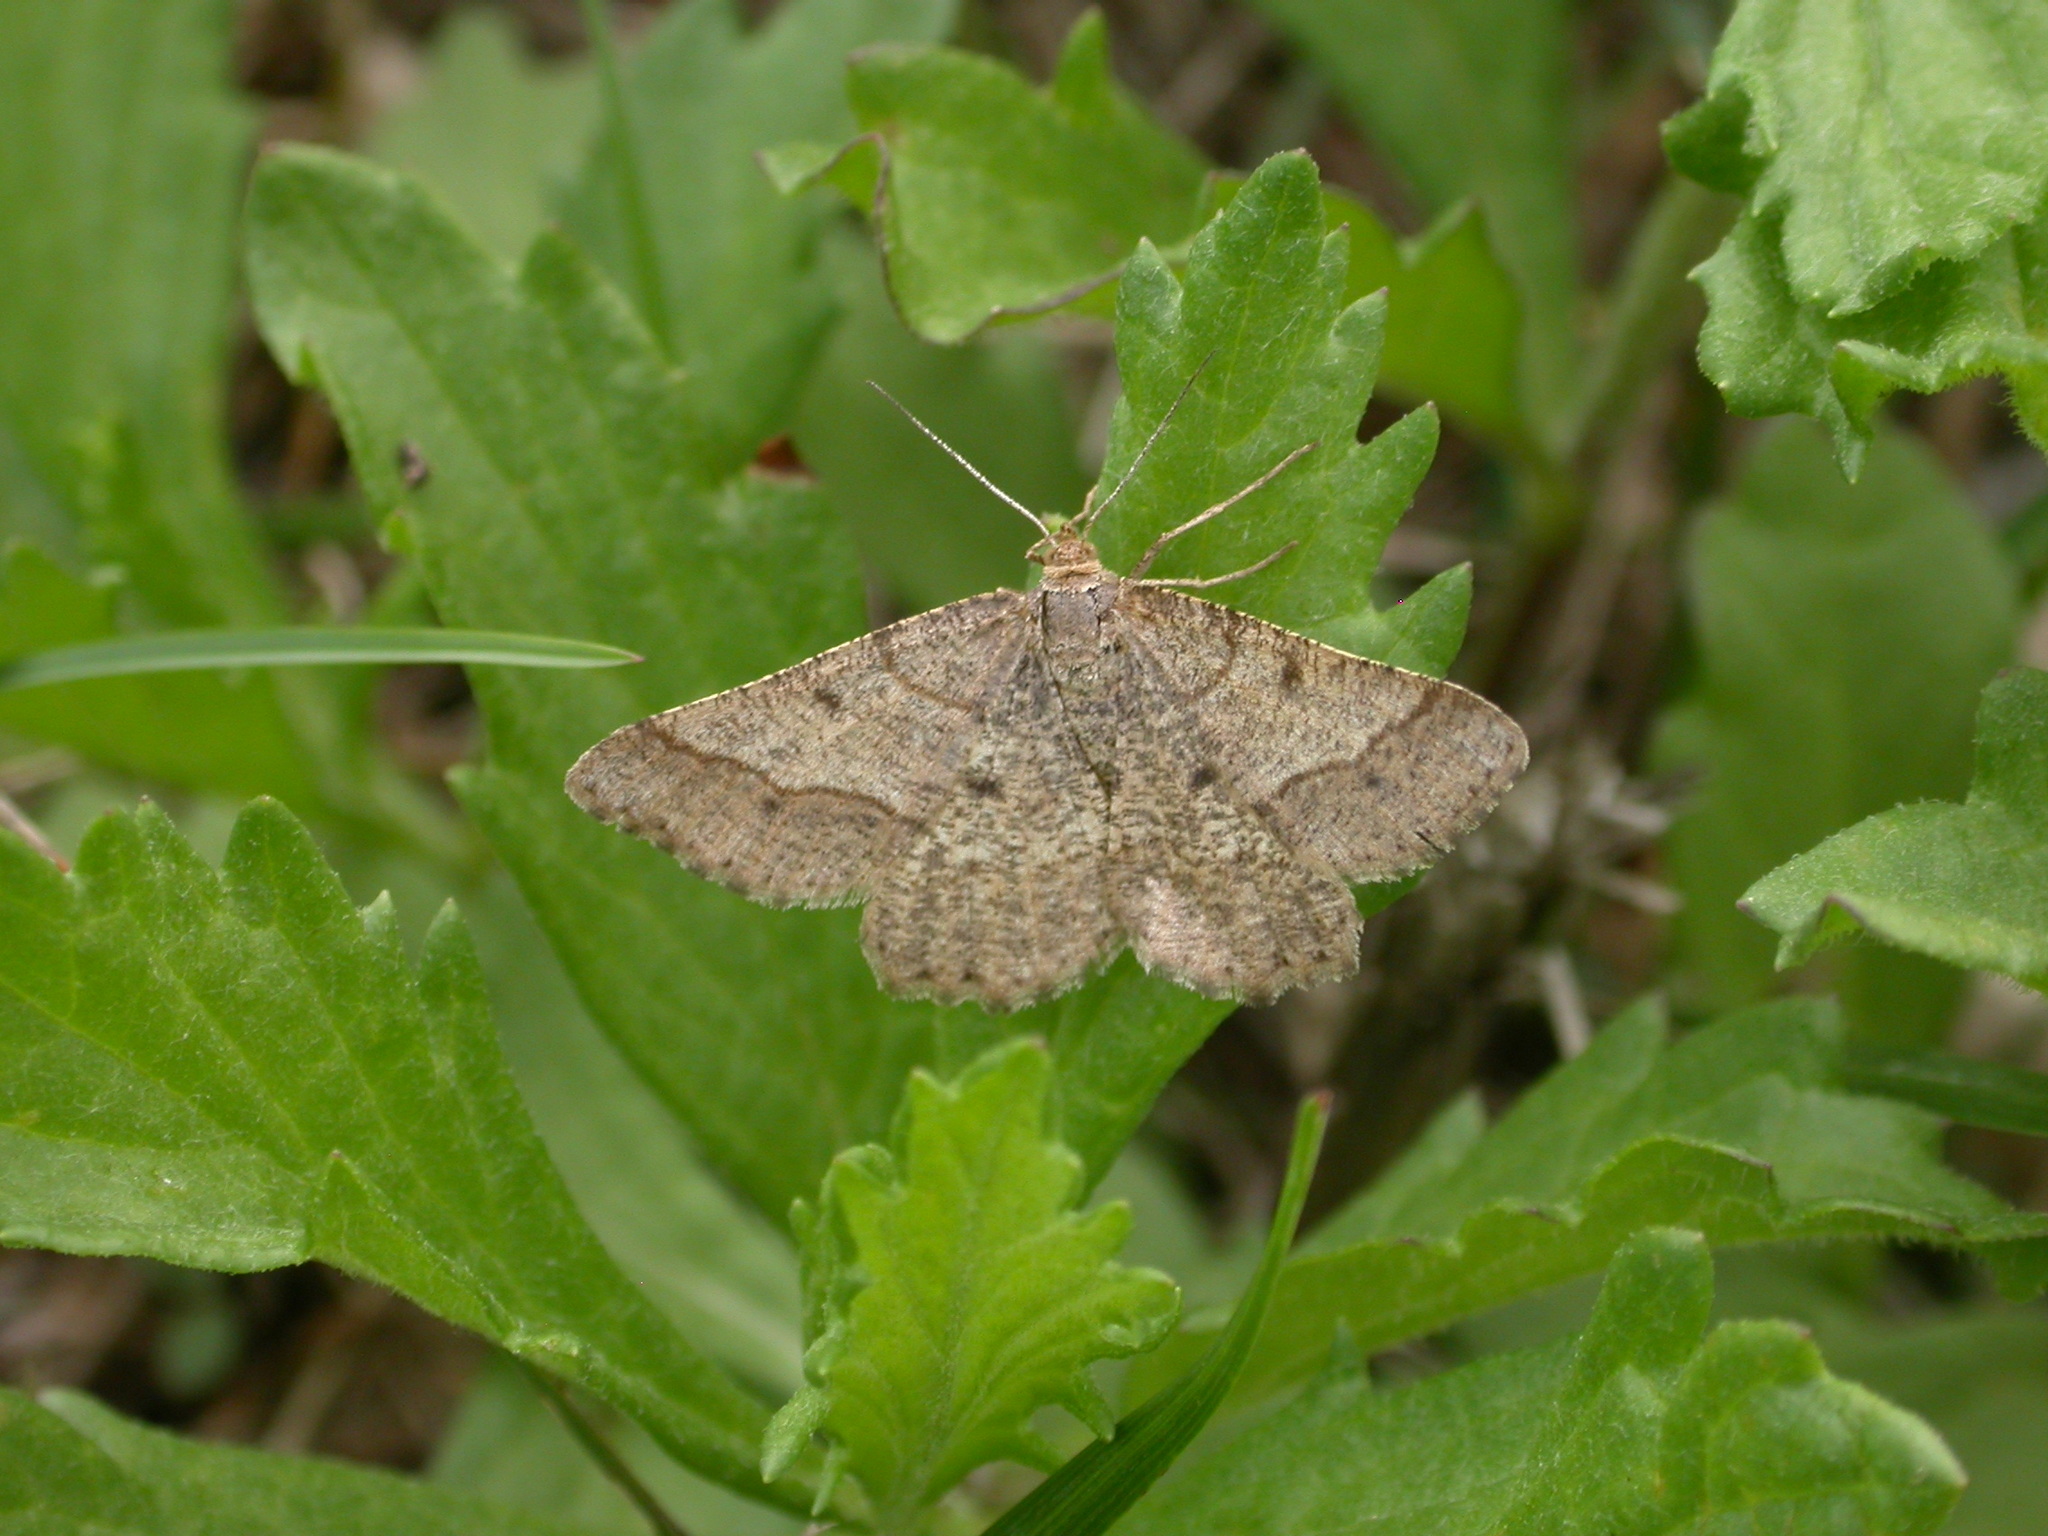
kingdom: Animalia
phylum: Arthropoda
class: Insecta
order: Lepidoptera
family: Geometridae
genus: Tephrina
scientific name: Tephrina murinaria
